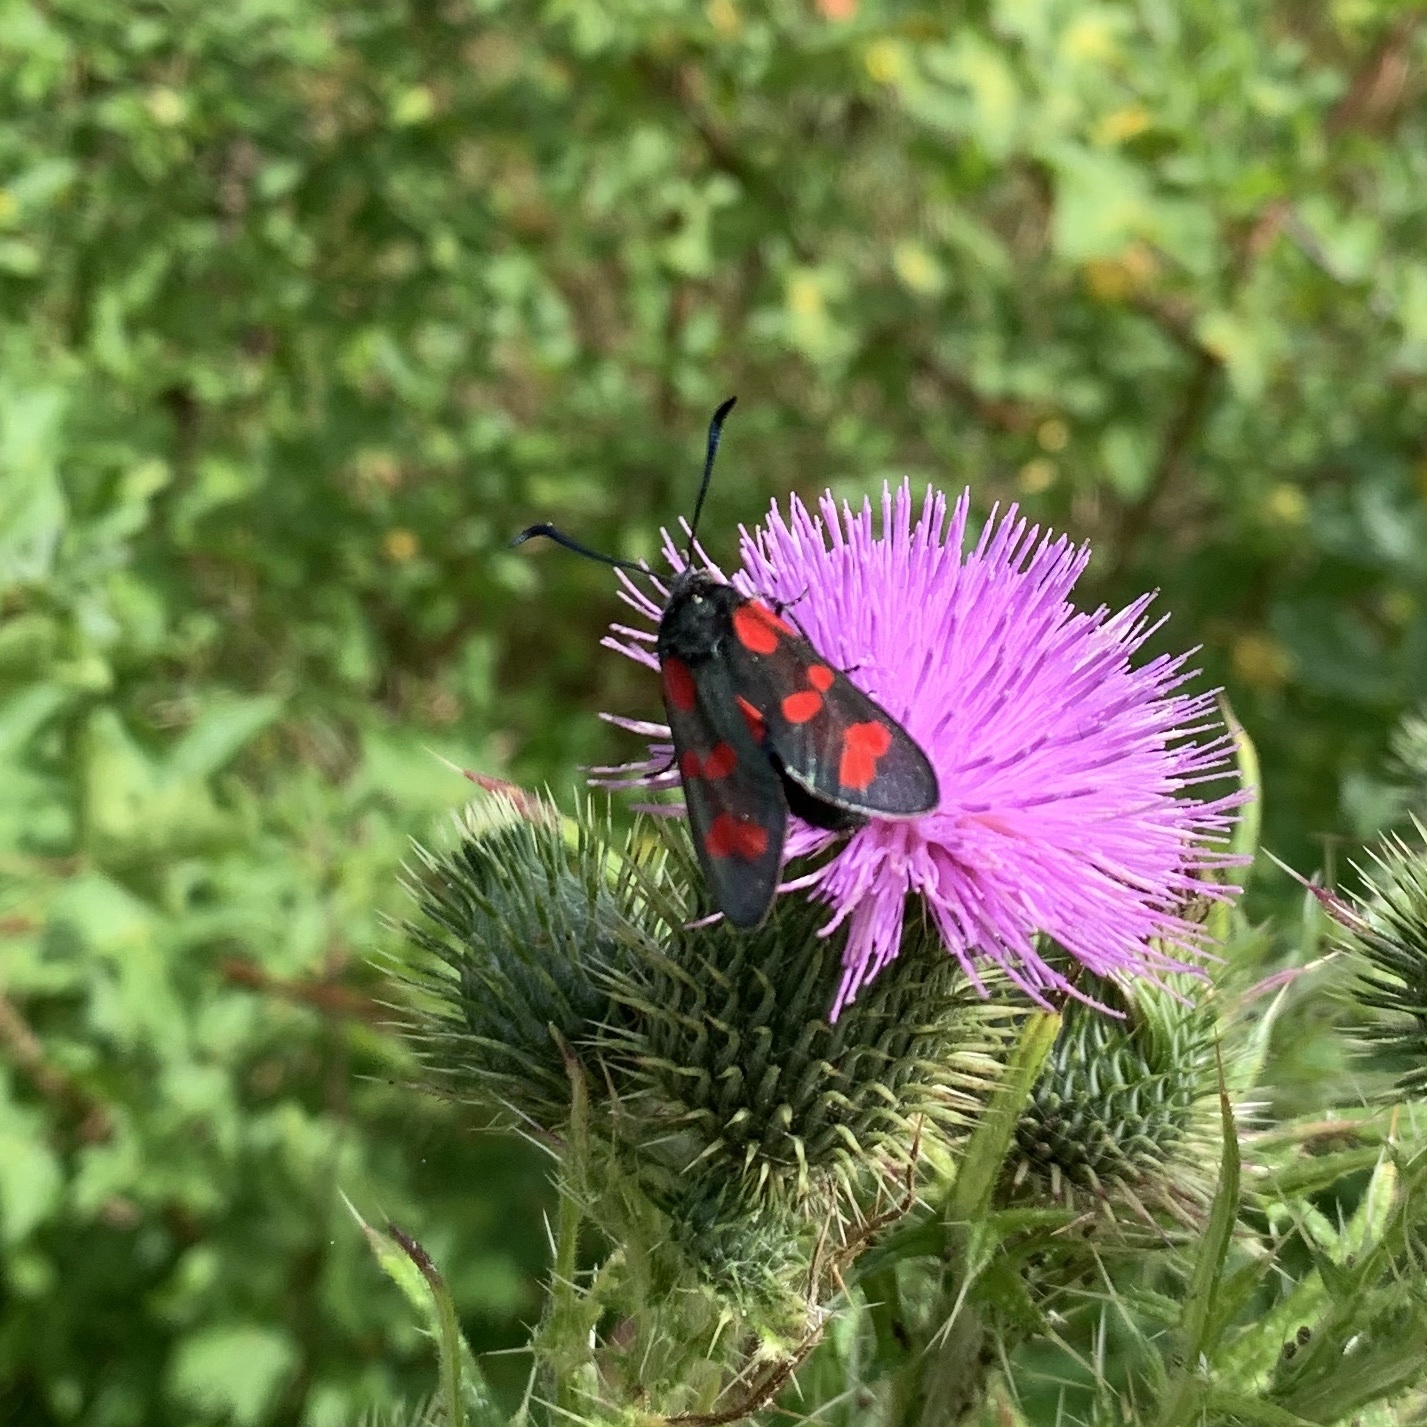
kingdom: Animalia
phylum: Arthropoda
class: Insecta
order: Lepidoptera
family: Zygaenidae
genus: Zygaena
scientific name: Zygaena filipendulae
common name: Six-spot burnet
